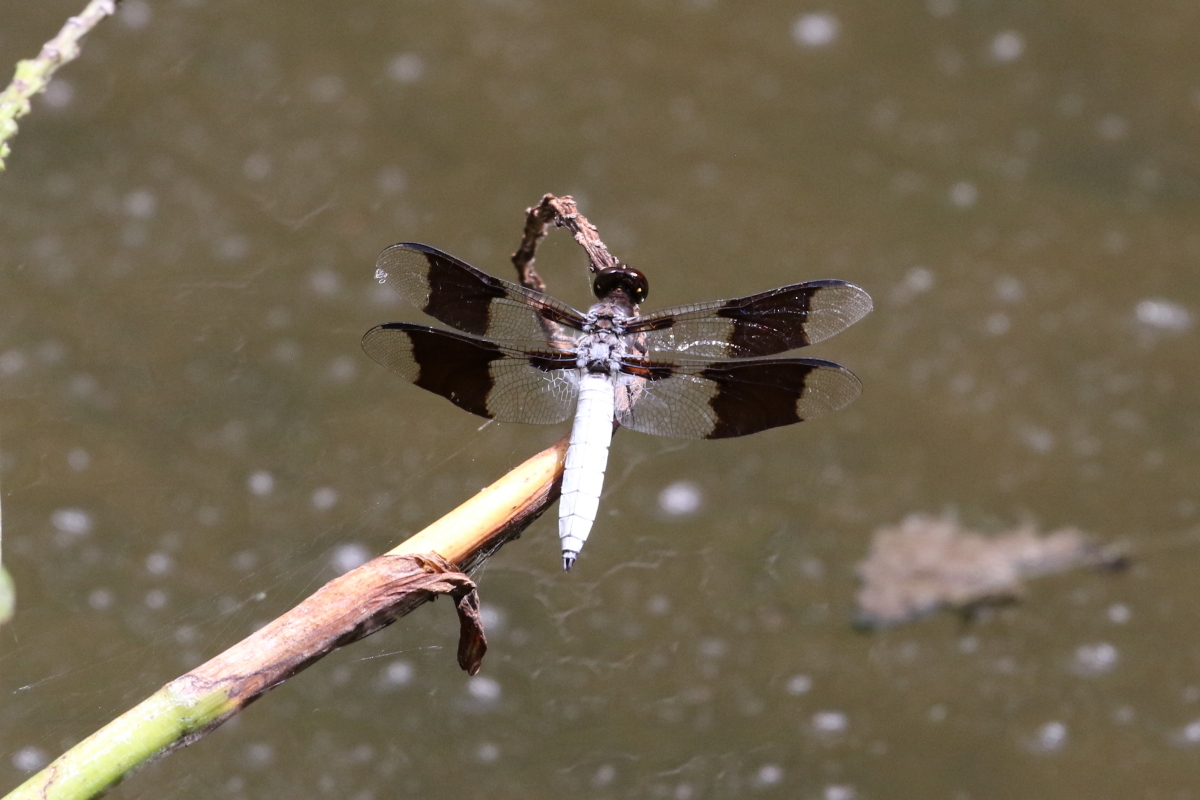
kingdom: Animalia
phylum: Arthropoda
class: Insecta
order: Odonata
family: Libellulidae
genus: Plathemis
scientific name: Plathemis lydia
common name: Common whitetail
